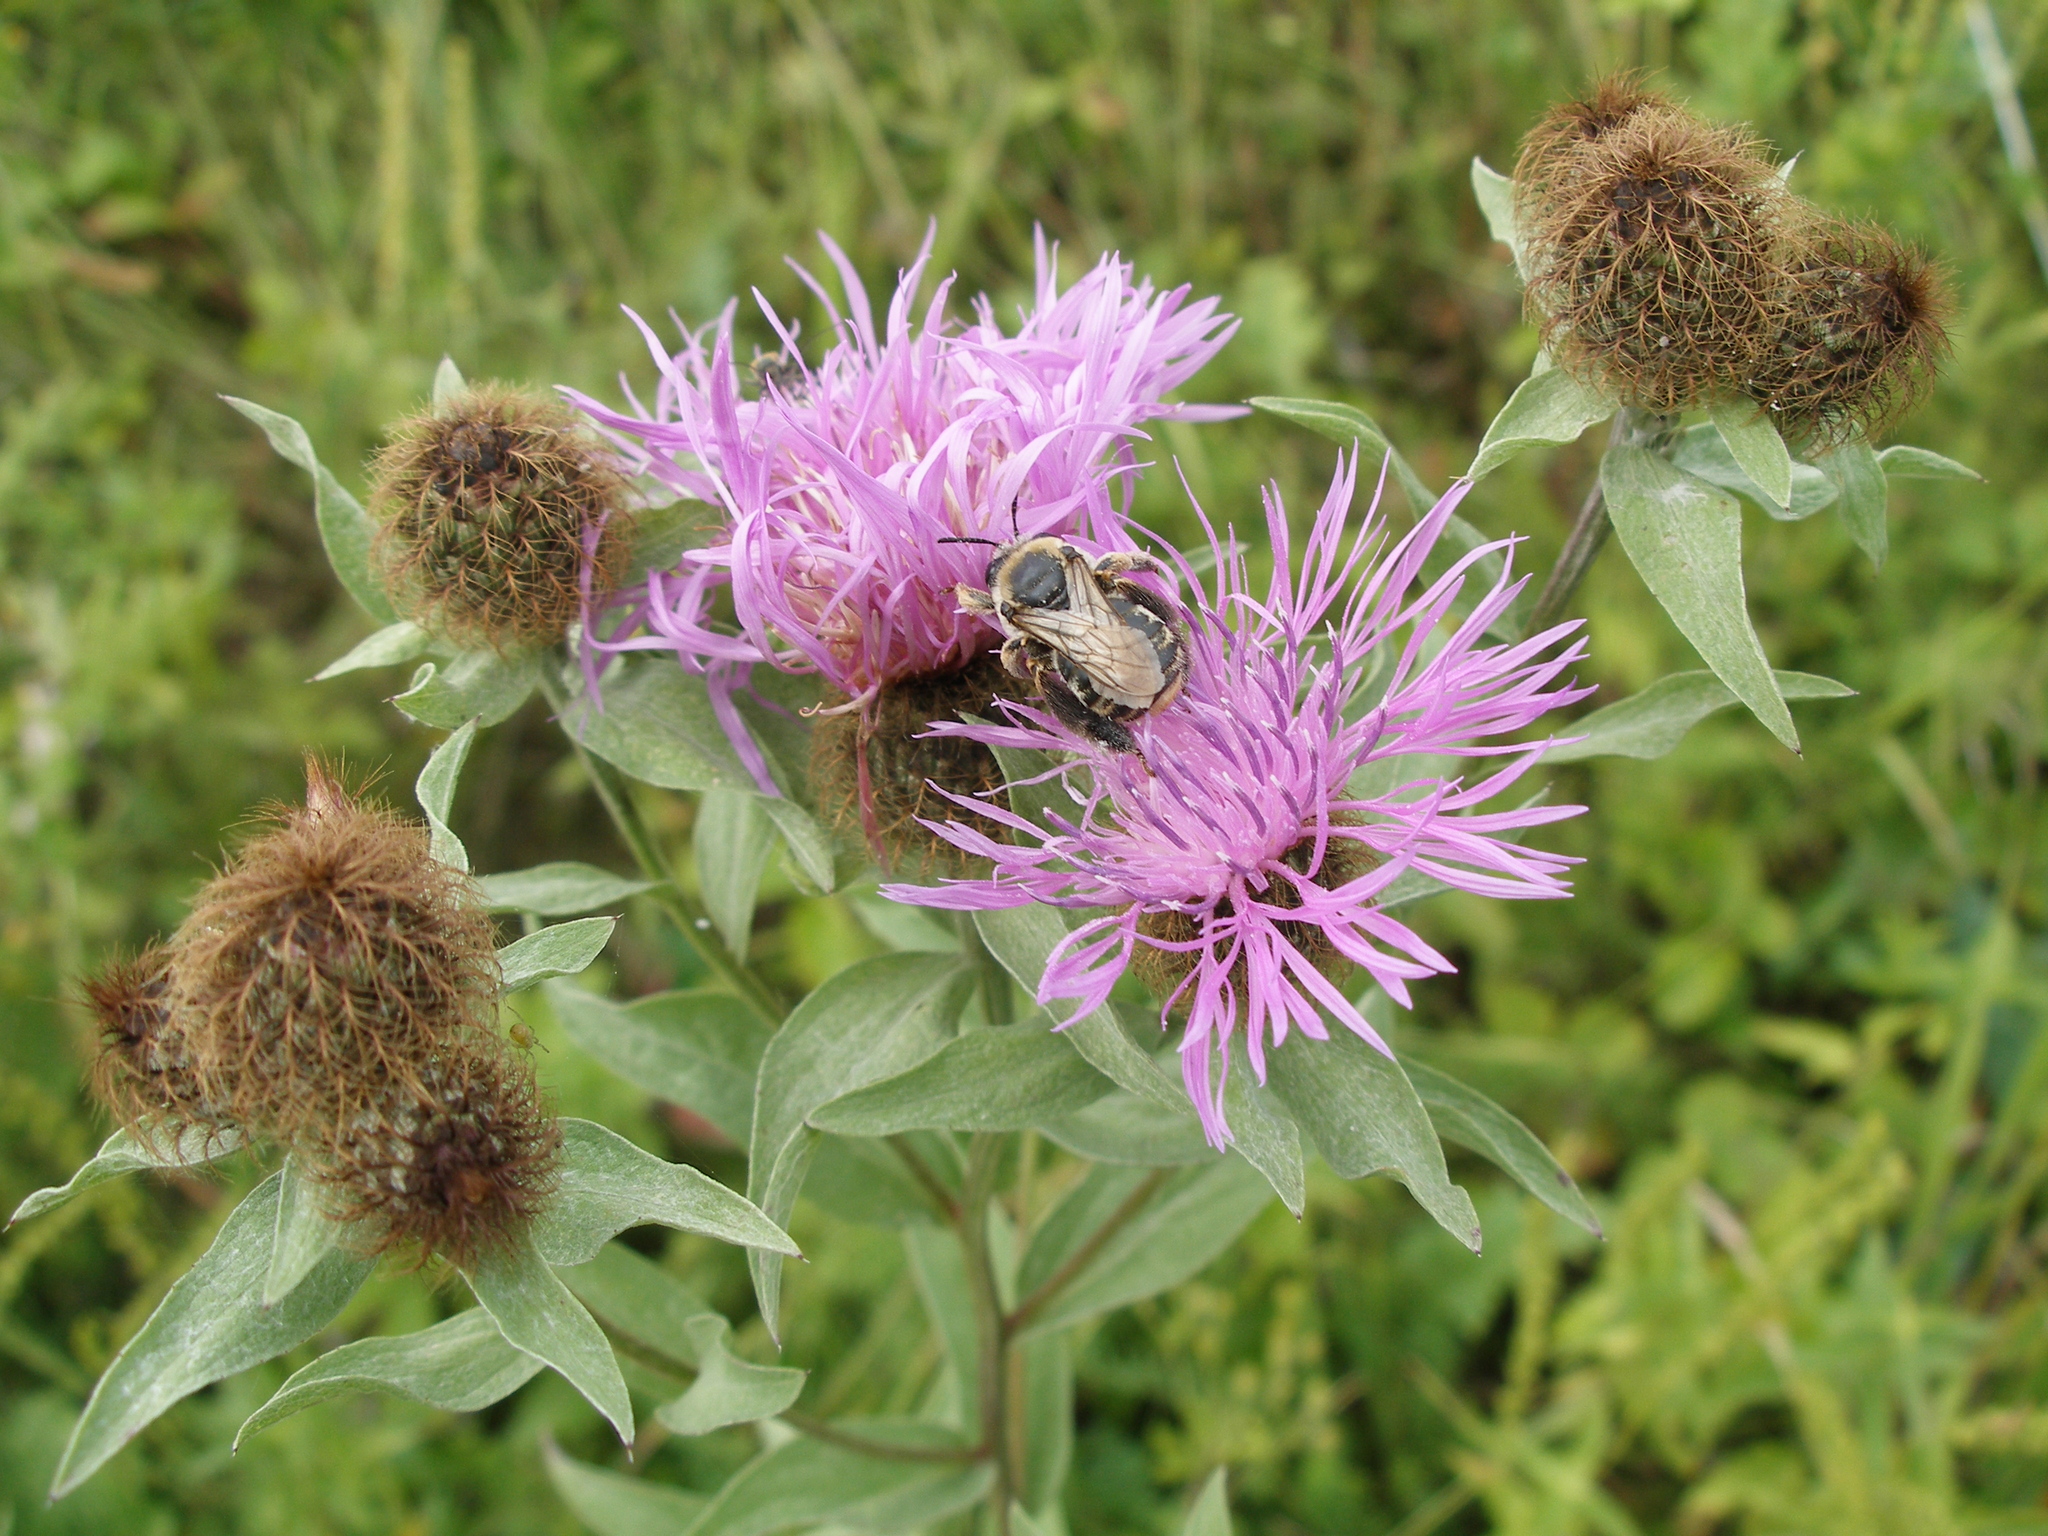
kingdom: Plantae
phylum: Tracheophyta
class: Magnoliopsida
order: Asterales
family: Asteraceae
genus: Centaurea
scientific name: Centaurea phrygia
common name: Wig knapweed
